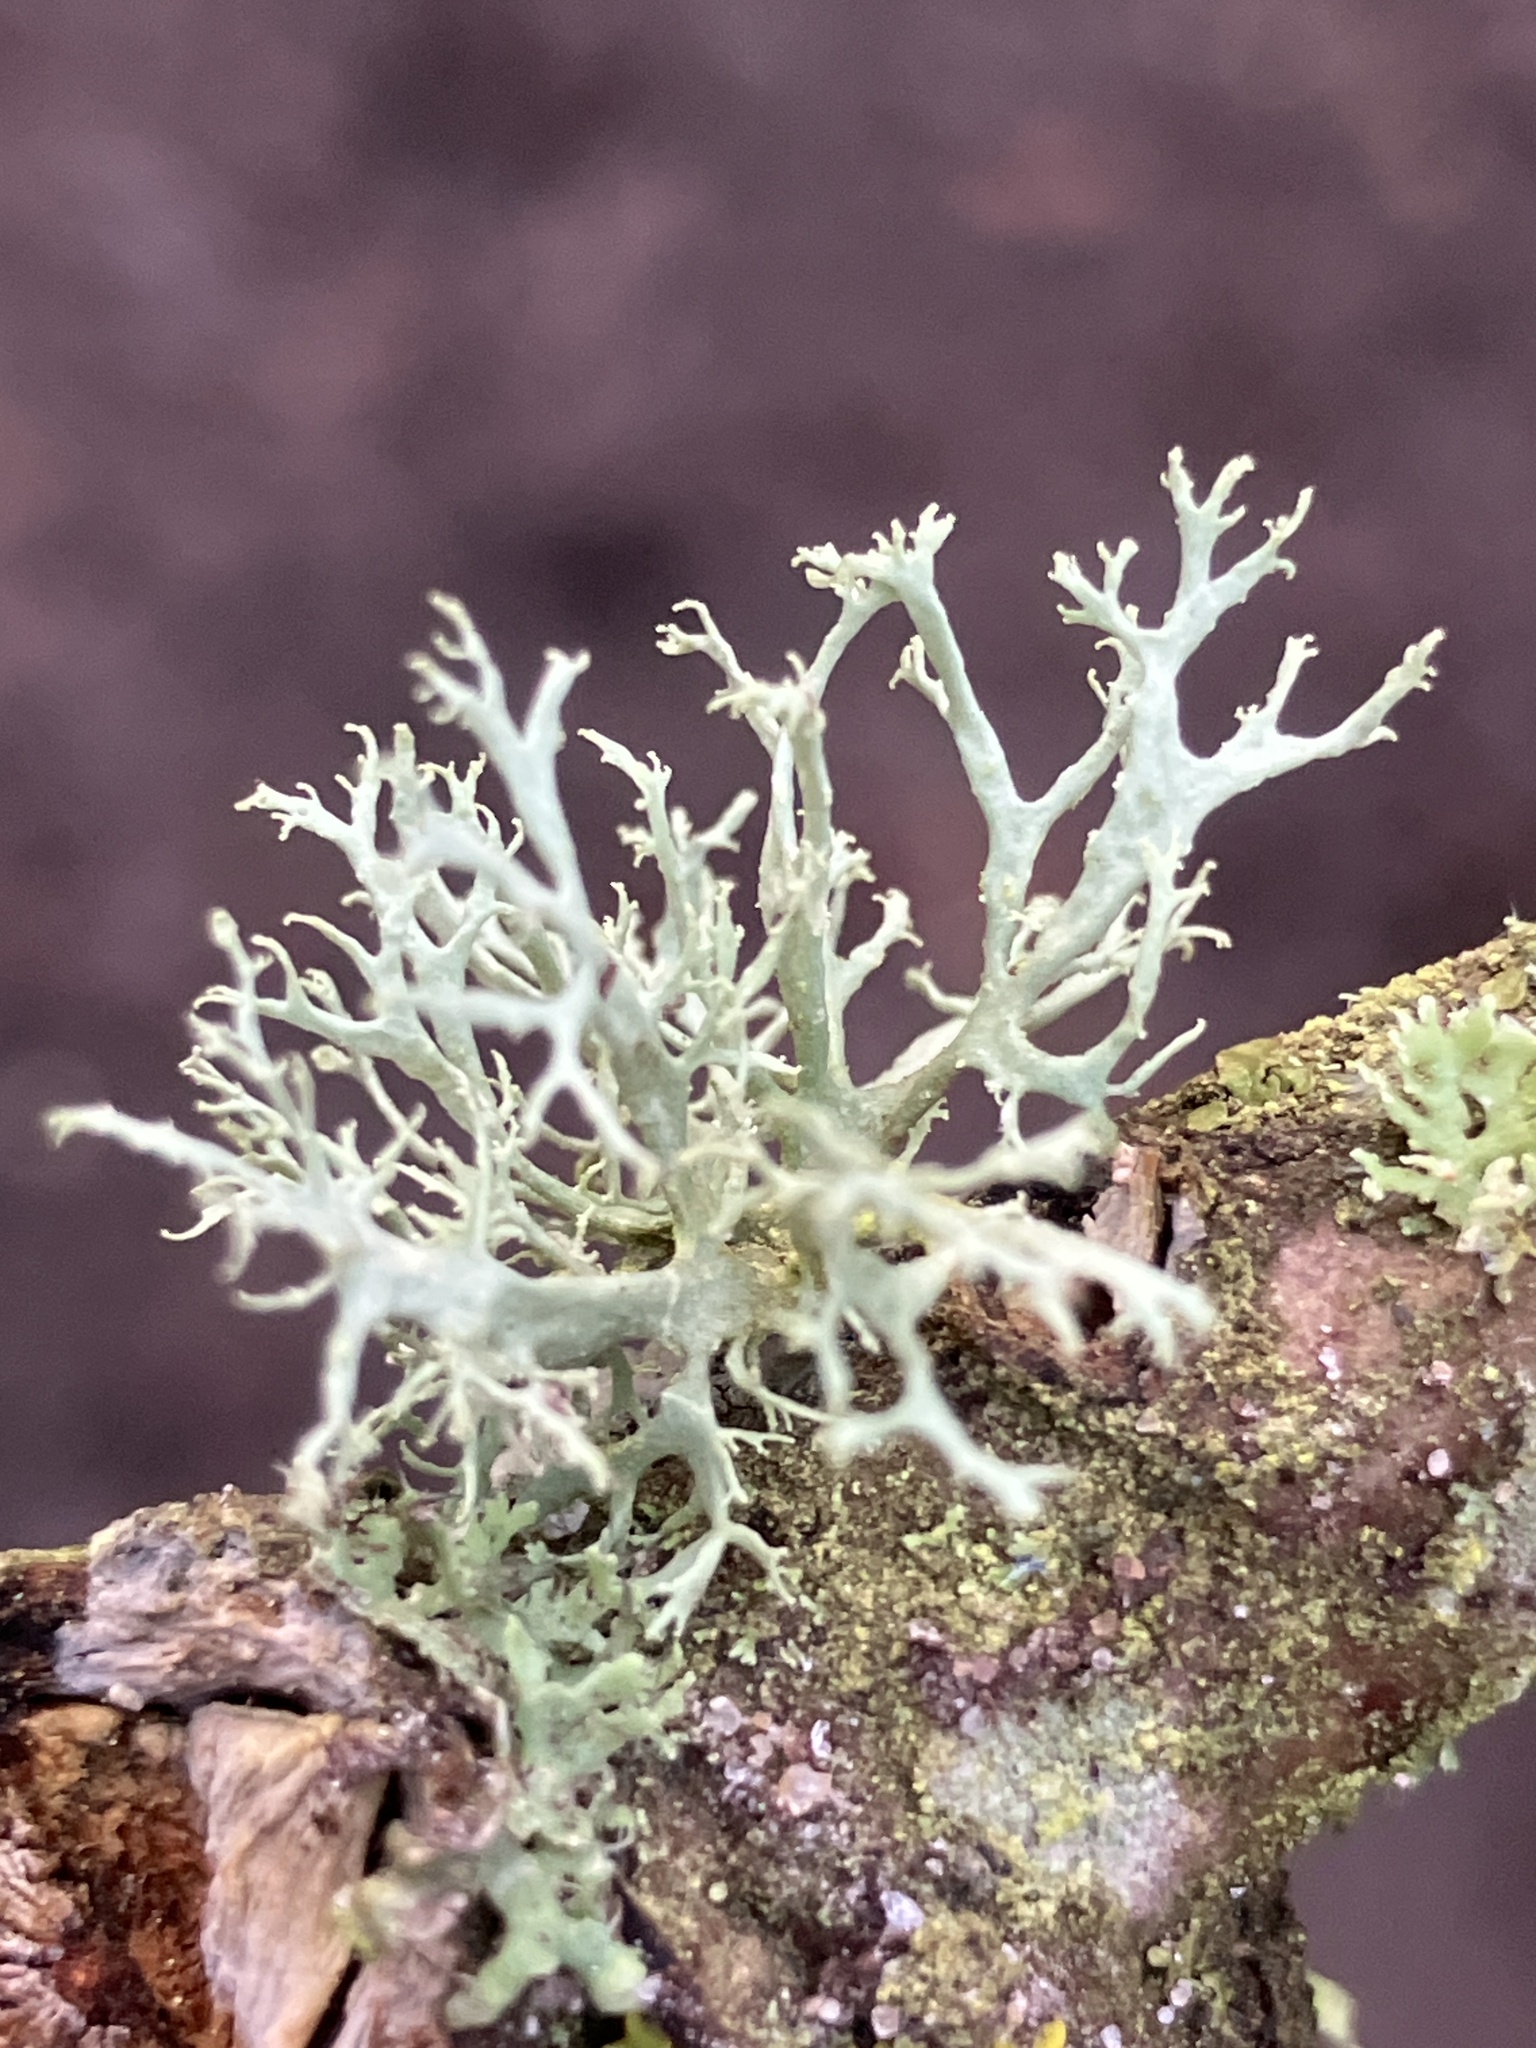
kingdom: Fungi
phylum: Ascomycota
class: Lecanoromycetes
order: Lecanorales
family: Parmeliaceae
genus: Evernia
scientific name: Evernia prunastri
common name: Oak moss
